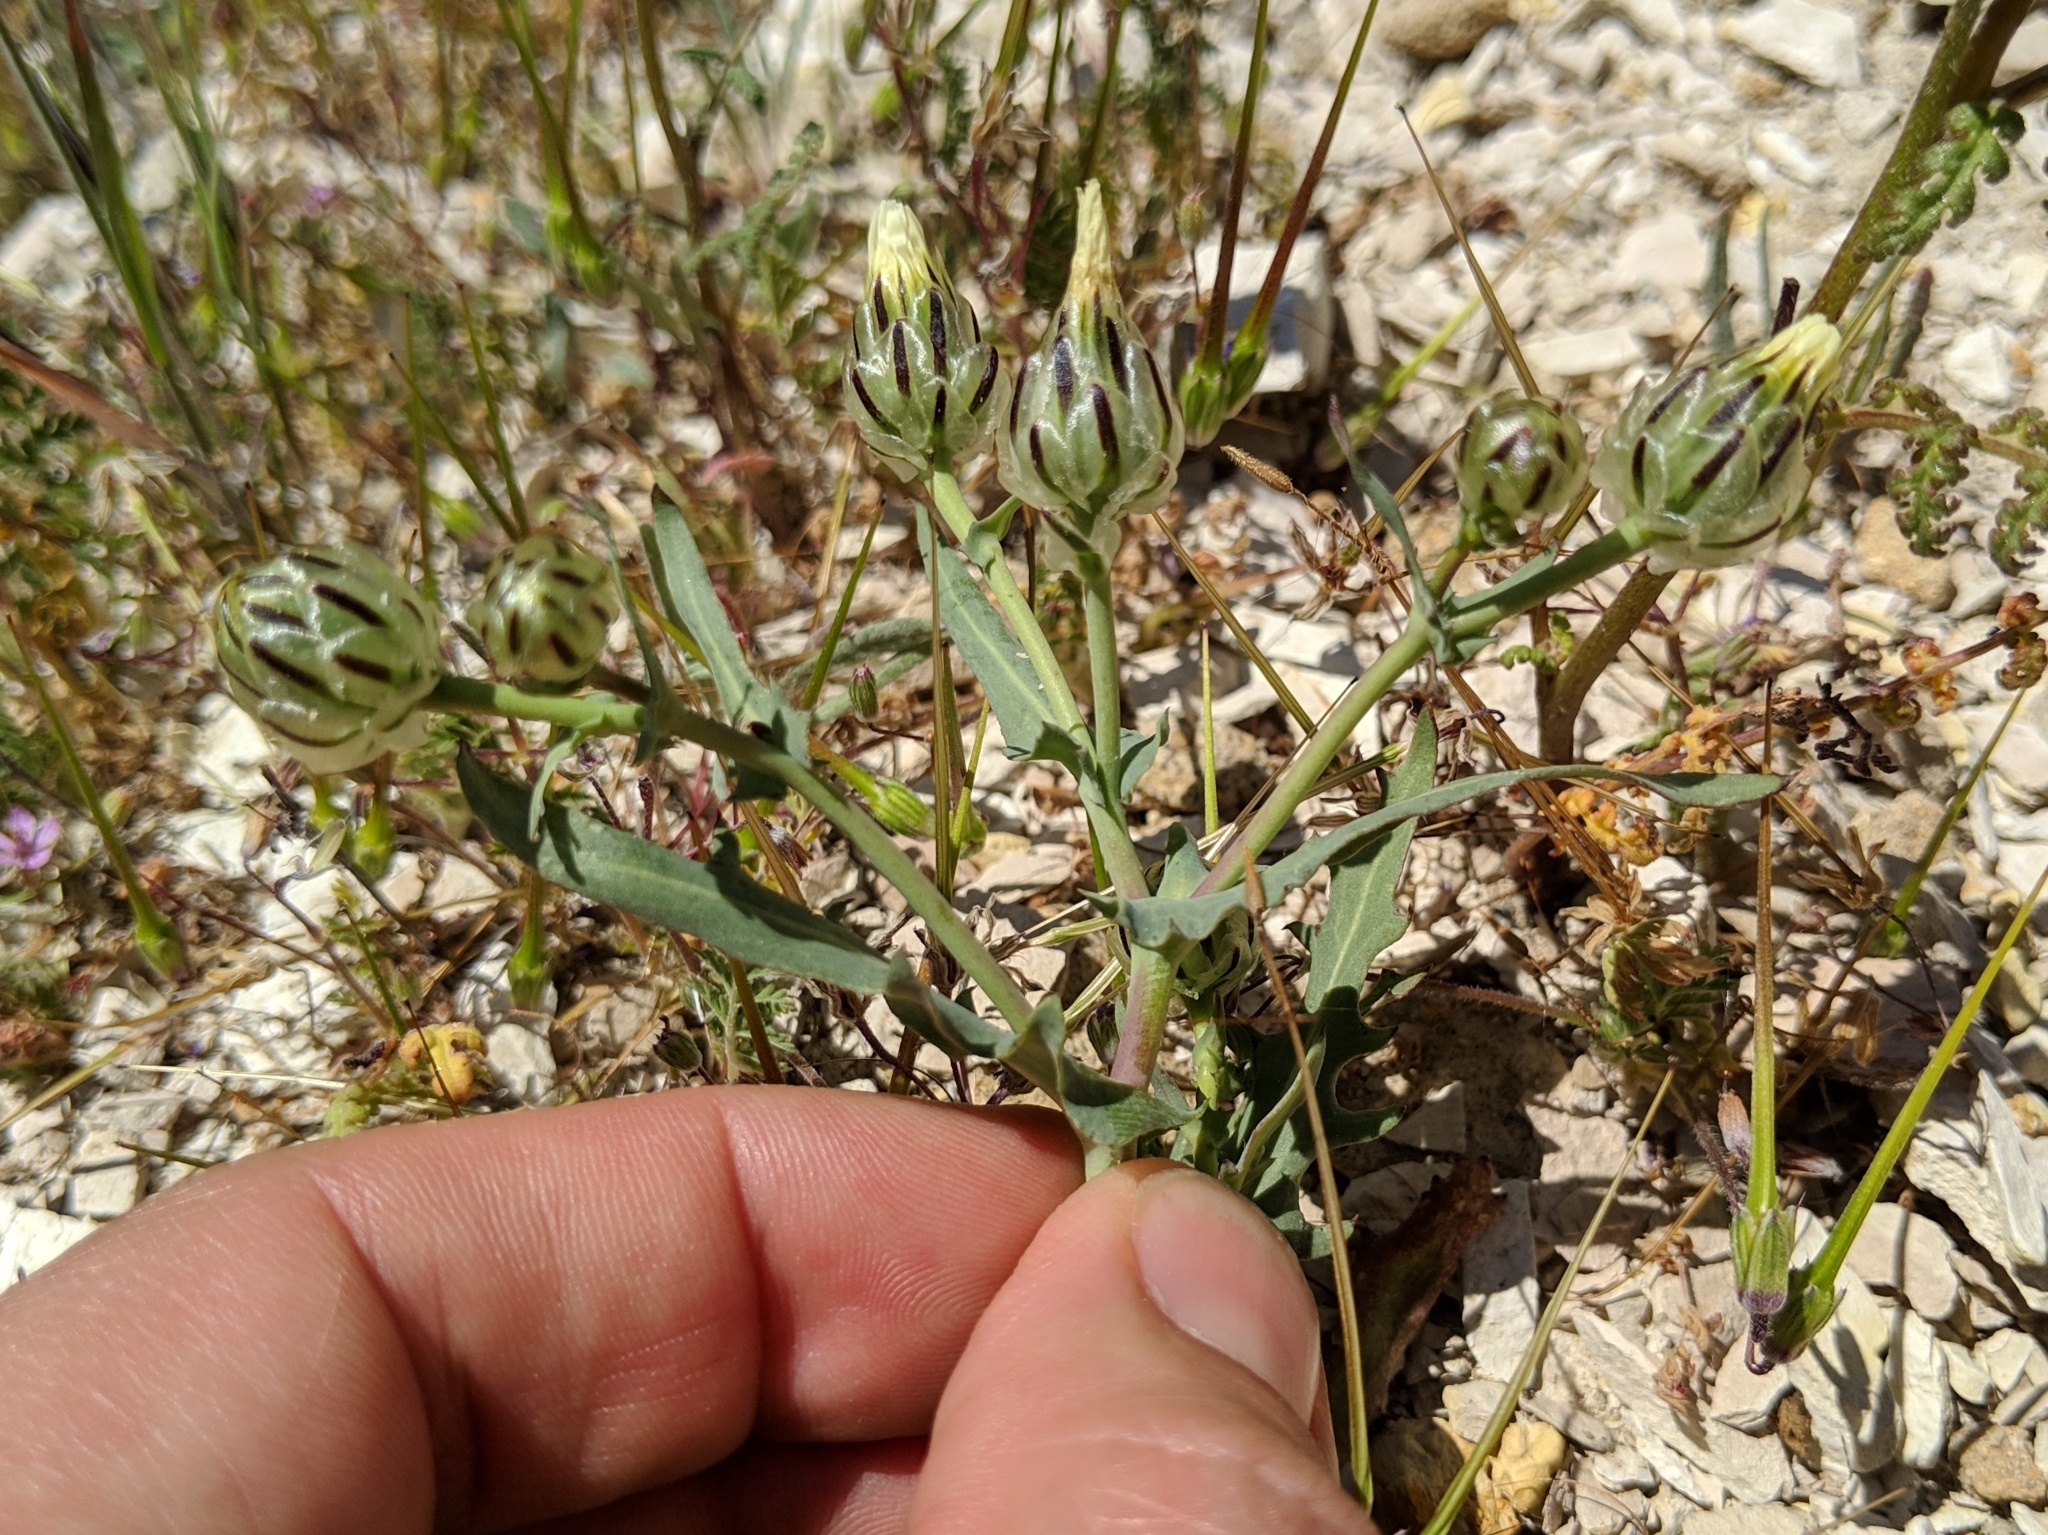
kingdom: Plantae
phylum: Tracheophyta
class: Magnoliopsida
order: Asterales
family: Asteraceae
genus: Malacothrix
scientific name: Malacothrix coulteri
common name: Snake's-head
